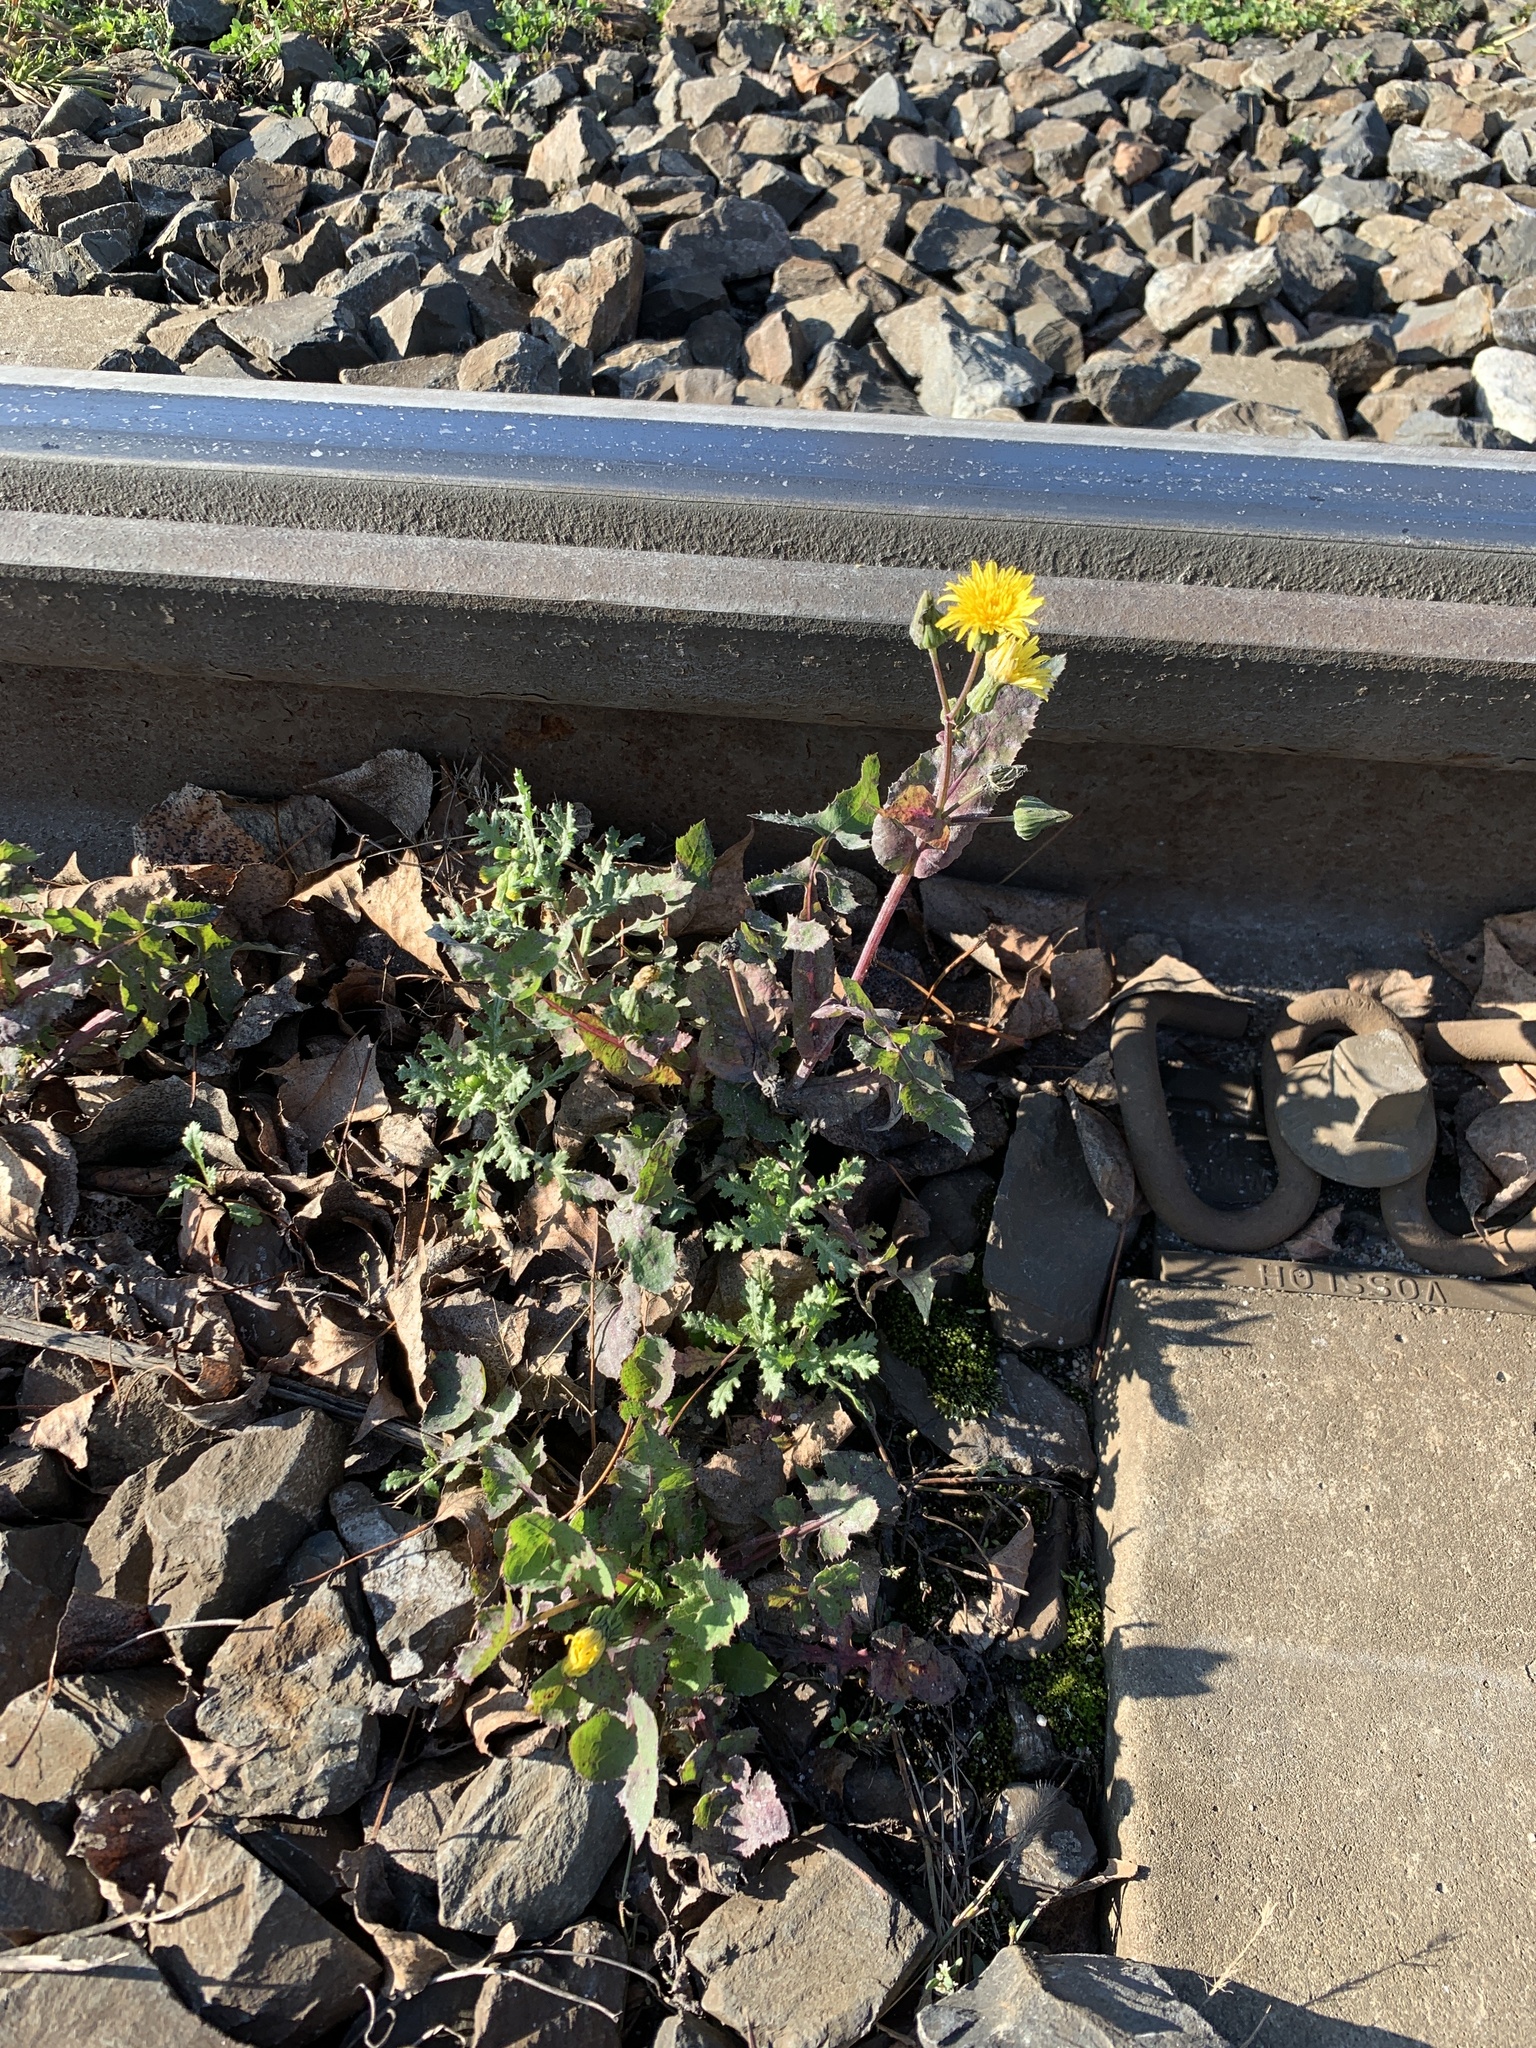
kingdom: Plantae
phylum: Tracheophyta
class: Magnoliopsida
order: Asterales
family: Asteraceae
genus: Sonchus
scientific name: Sonchus oleraceus
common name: Common sowthistle
